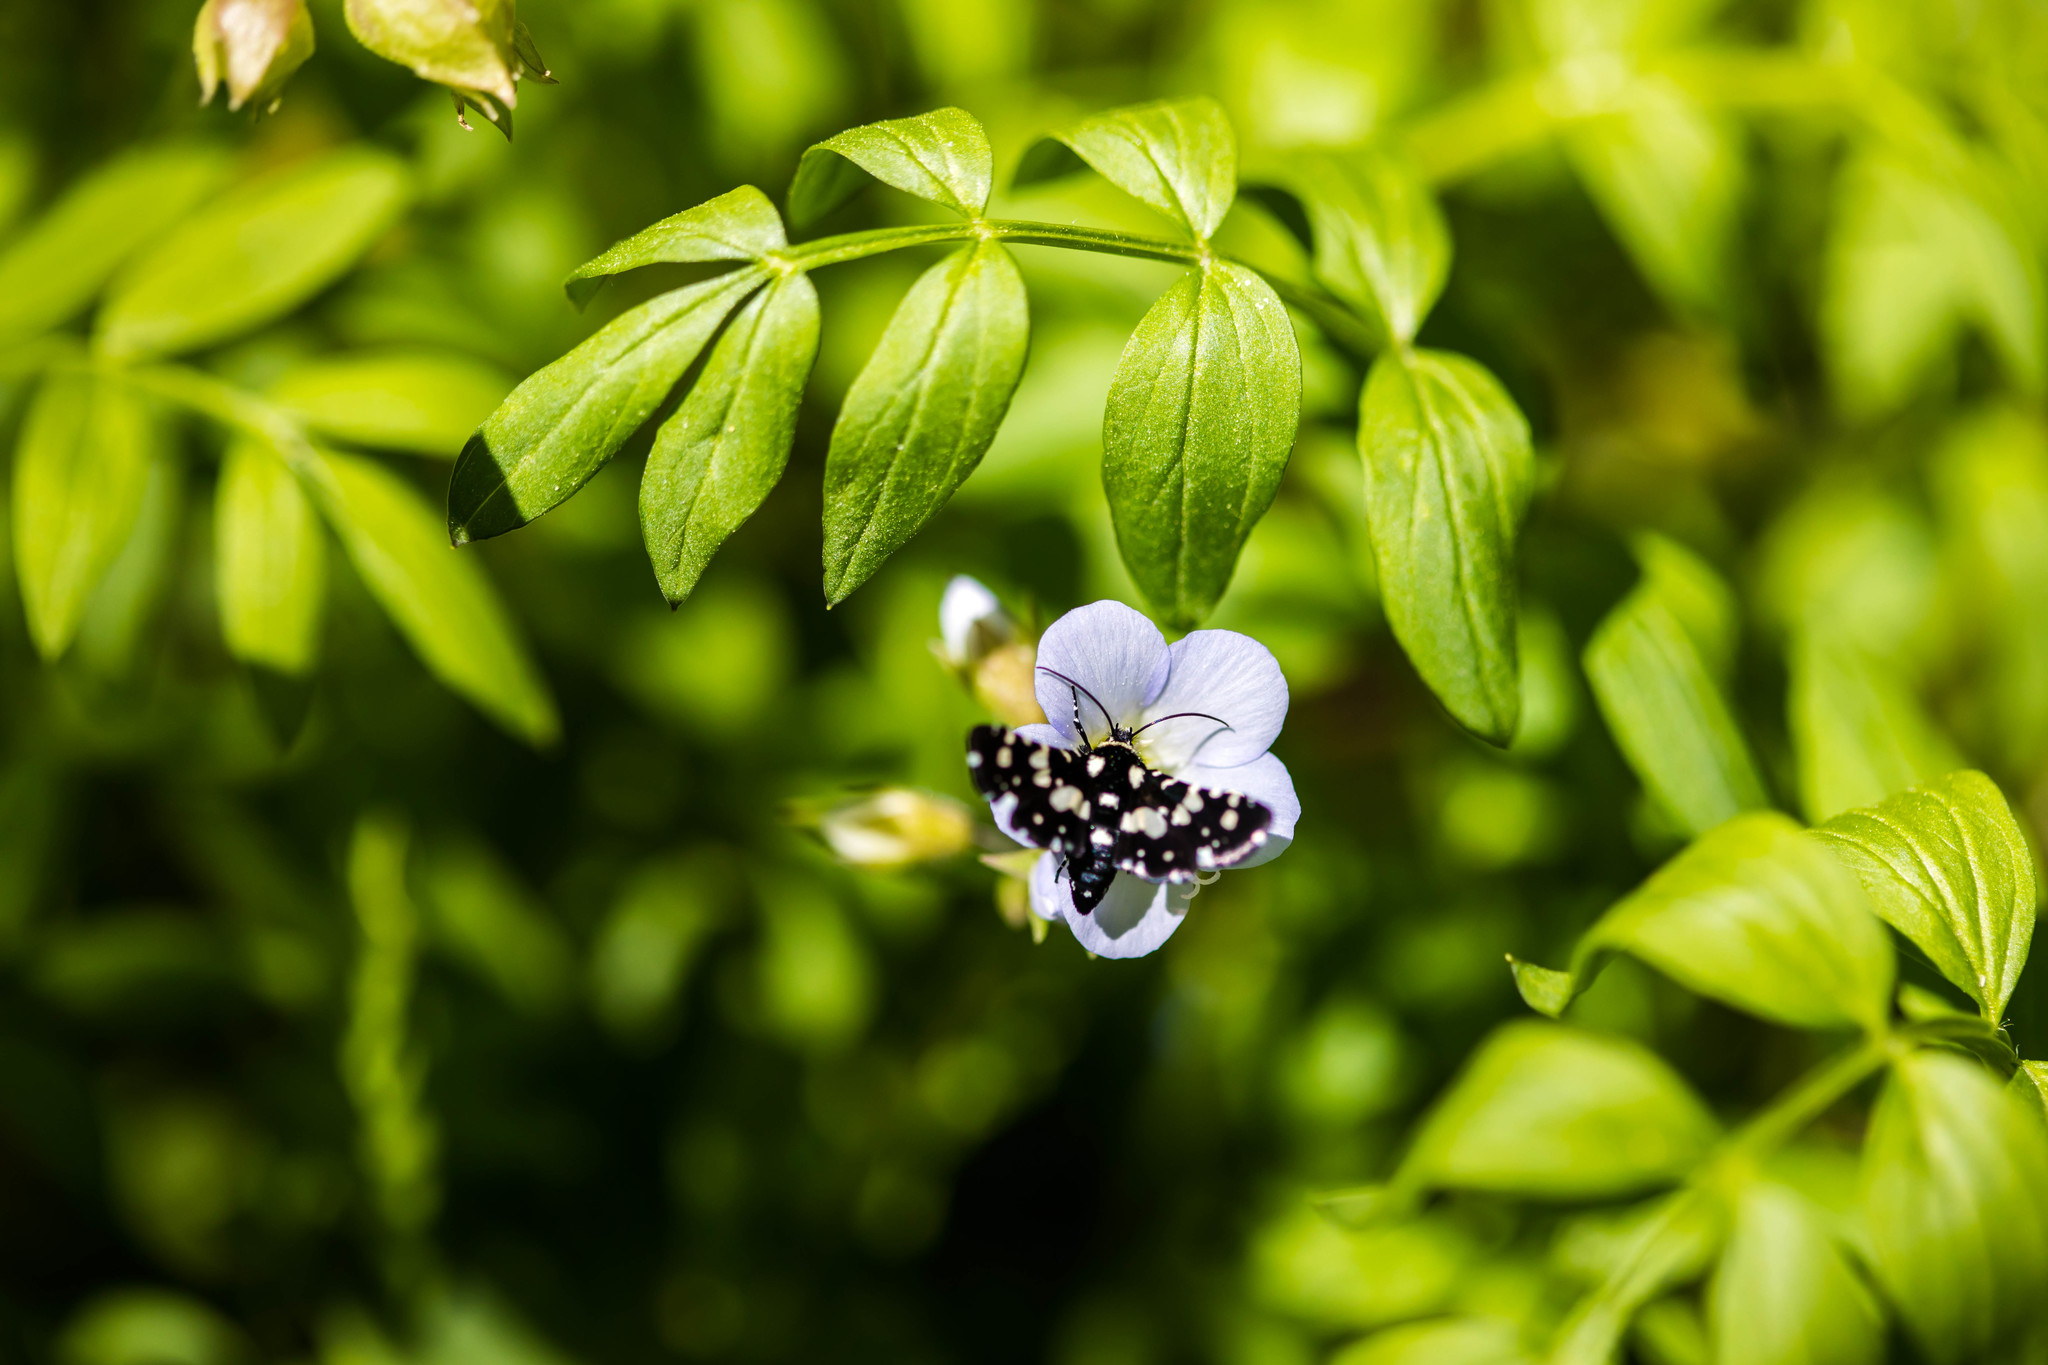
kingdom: Animalia
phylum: Arthropoda
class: Insecta
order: Lepidoptera
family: Thyrididae
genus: Pseudothyris
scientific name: Pseudothyris sepulchralis
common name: Mournful thyris moth
